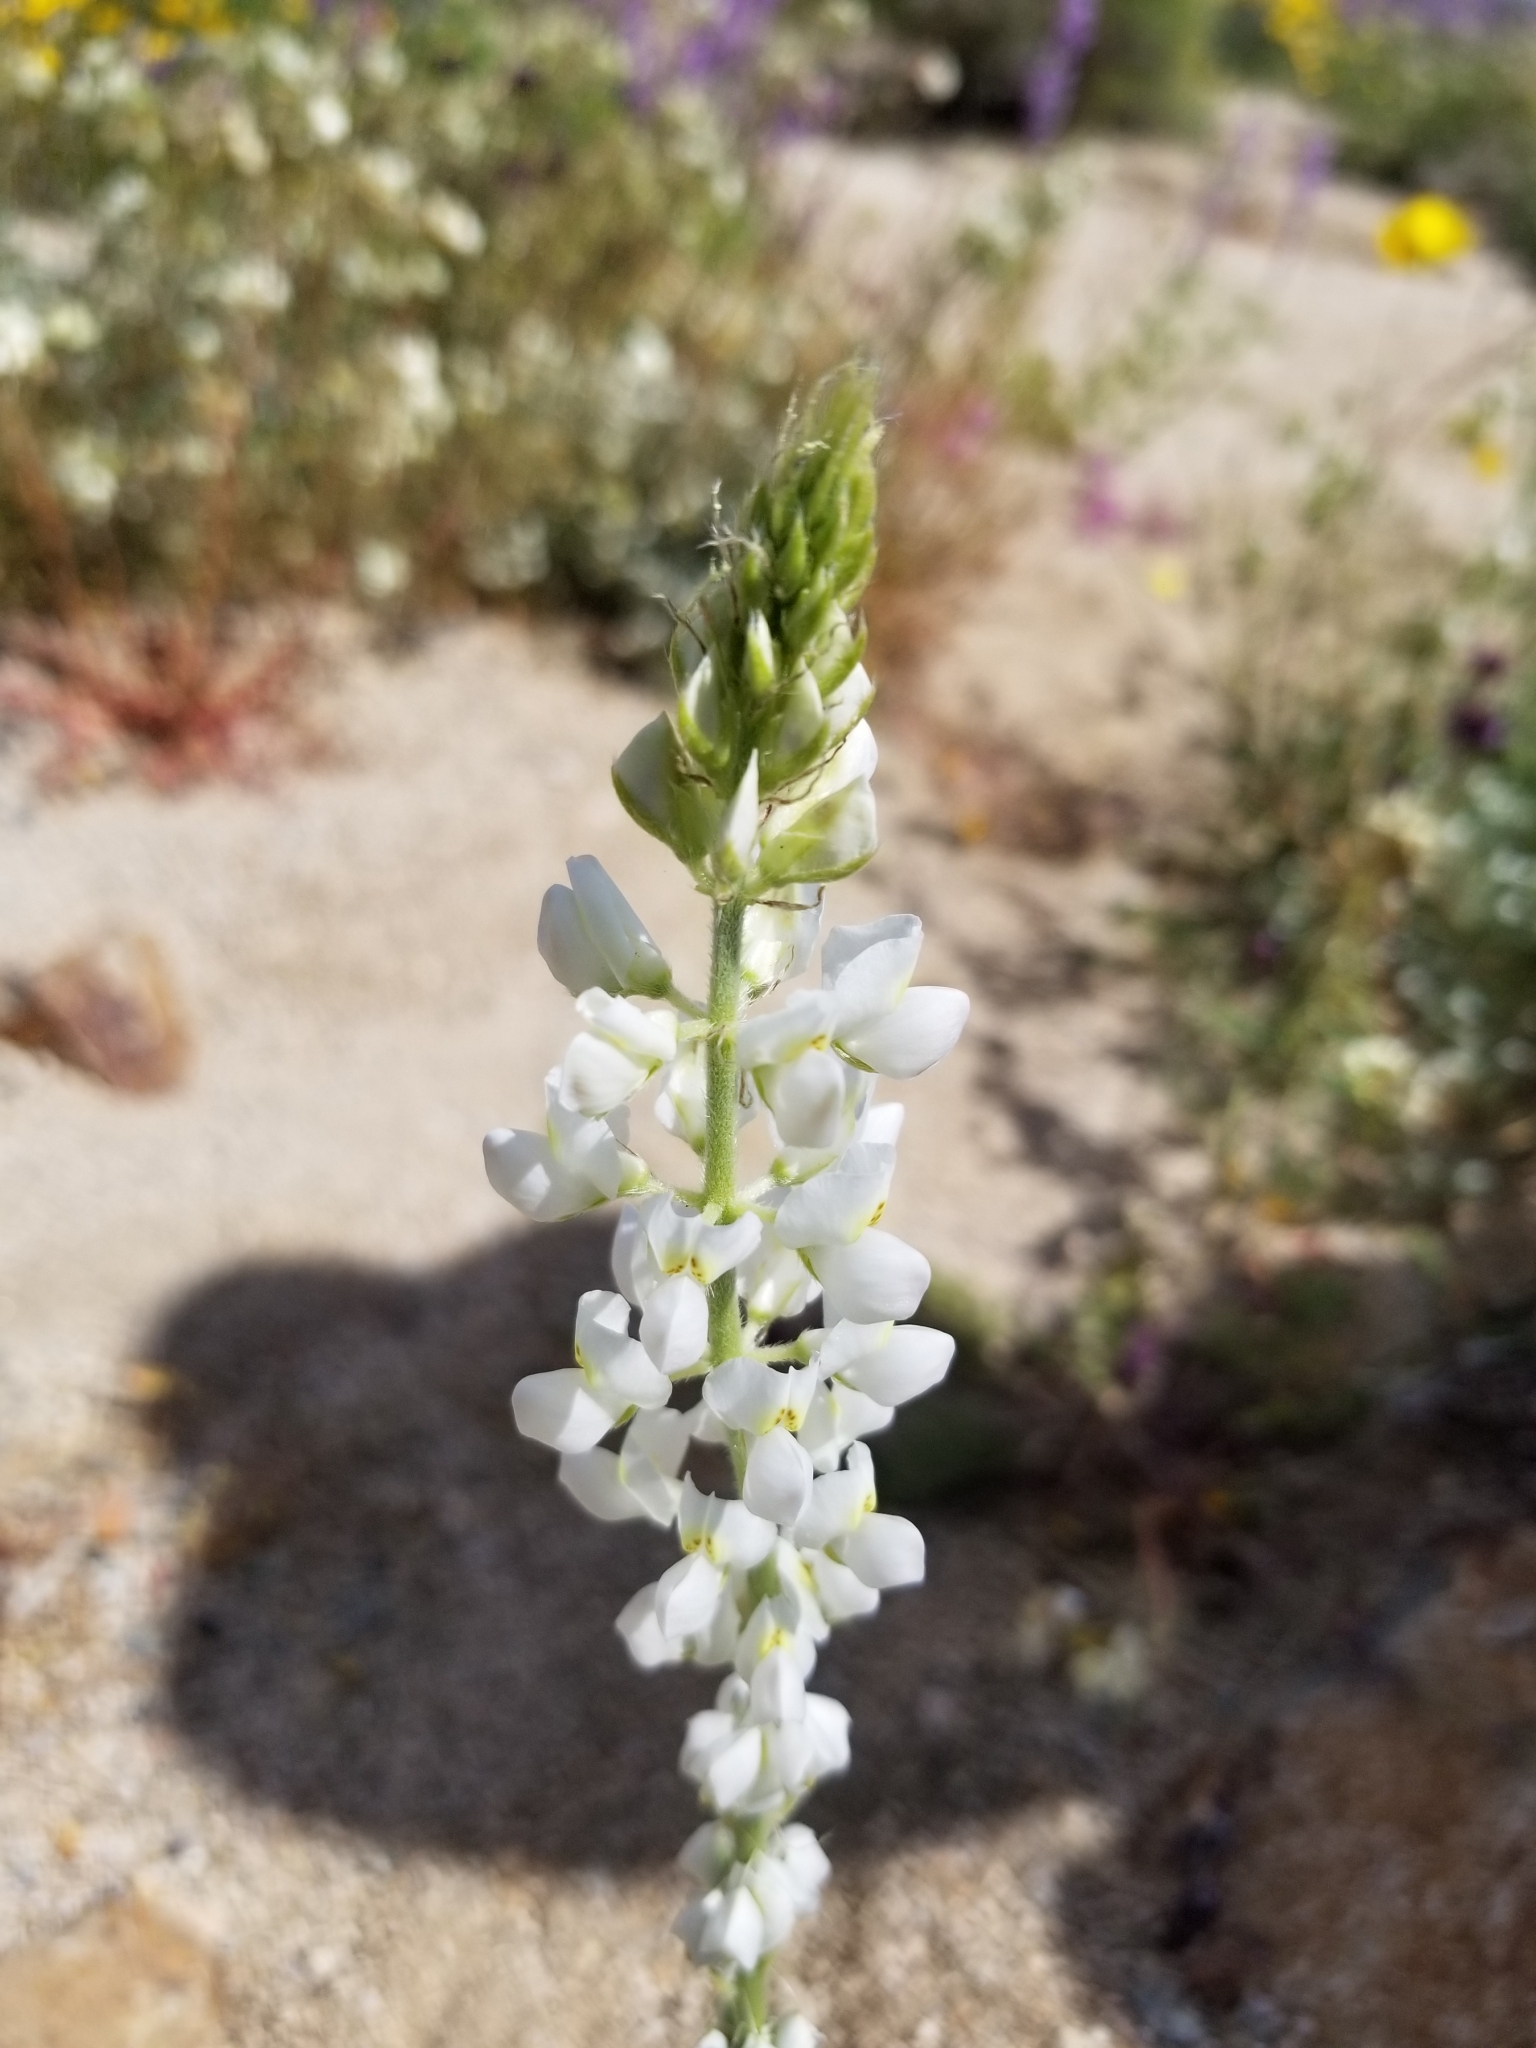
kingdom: Plantae
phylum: Tracheophyta
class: Magnoliopsida
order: Fabales
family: Fabaceae
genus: Lupinus
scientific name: Lupinus arizonicus
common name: Arizona lupine
